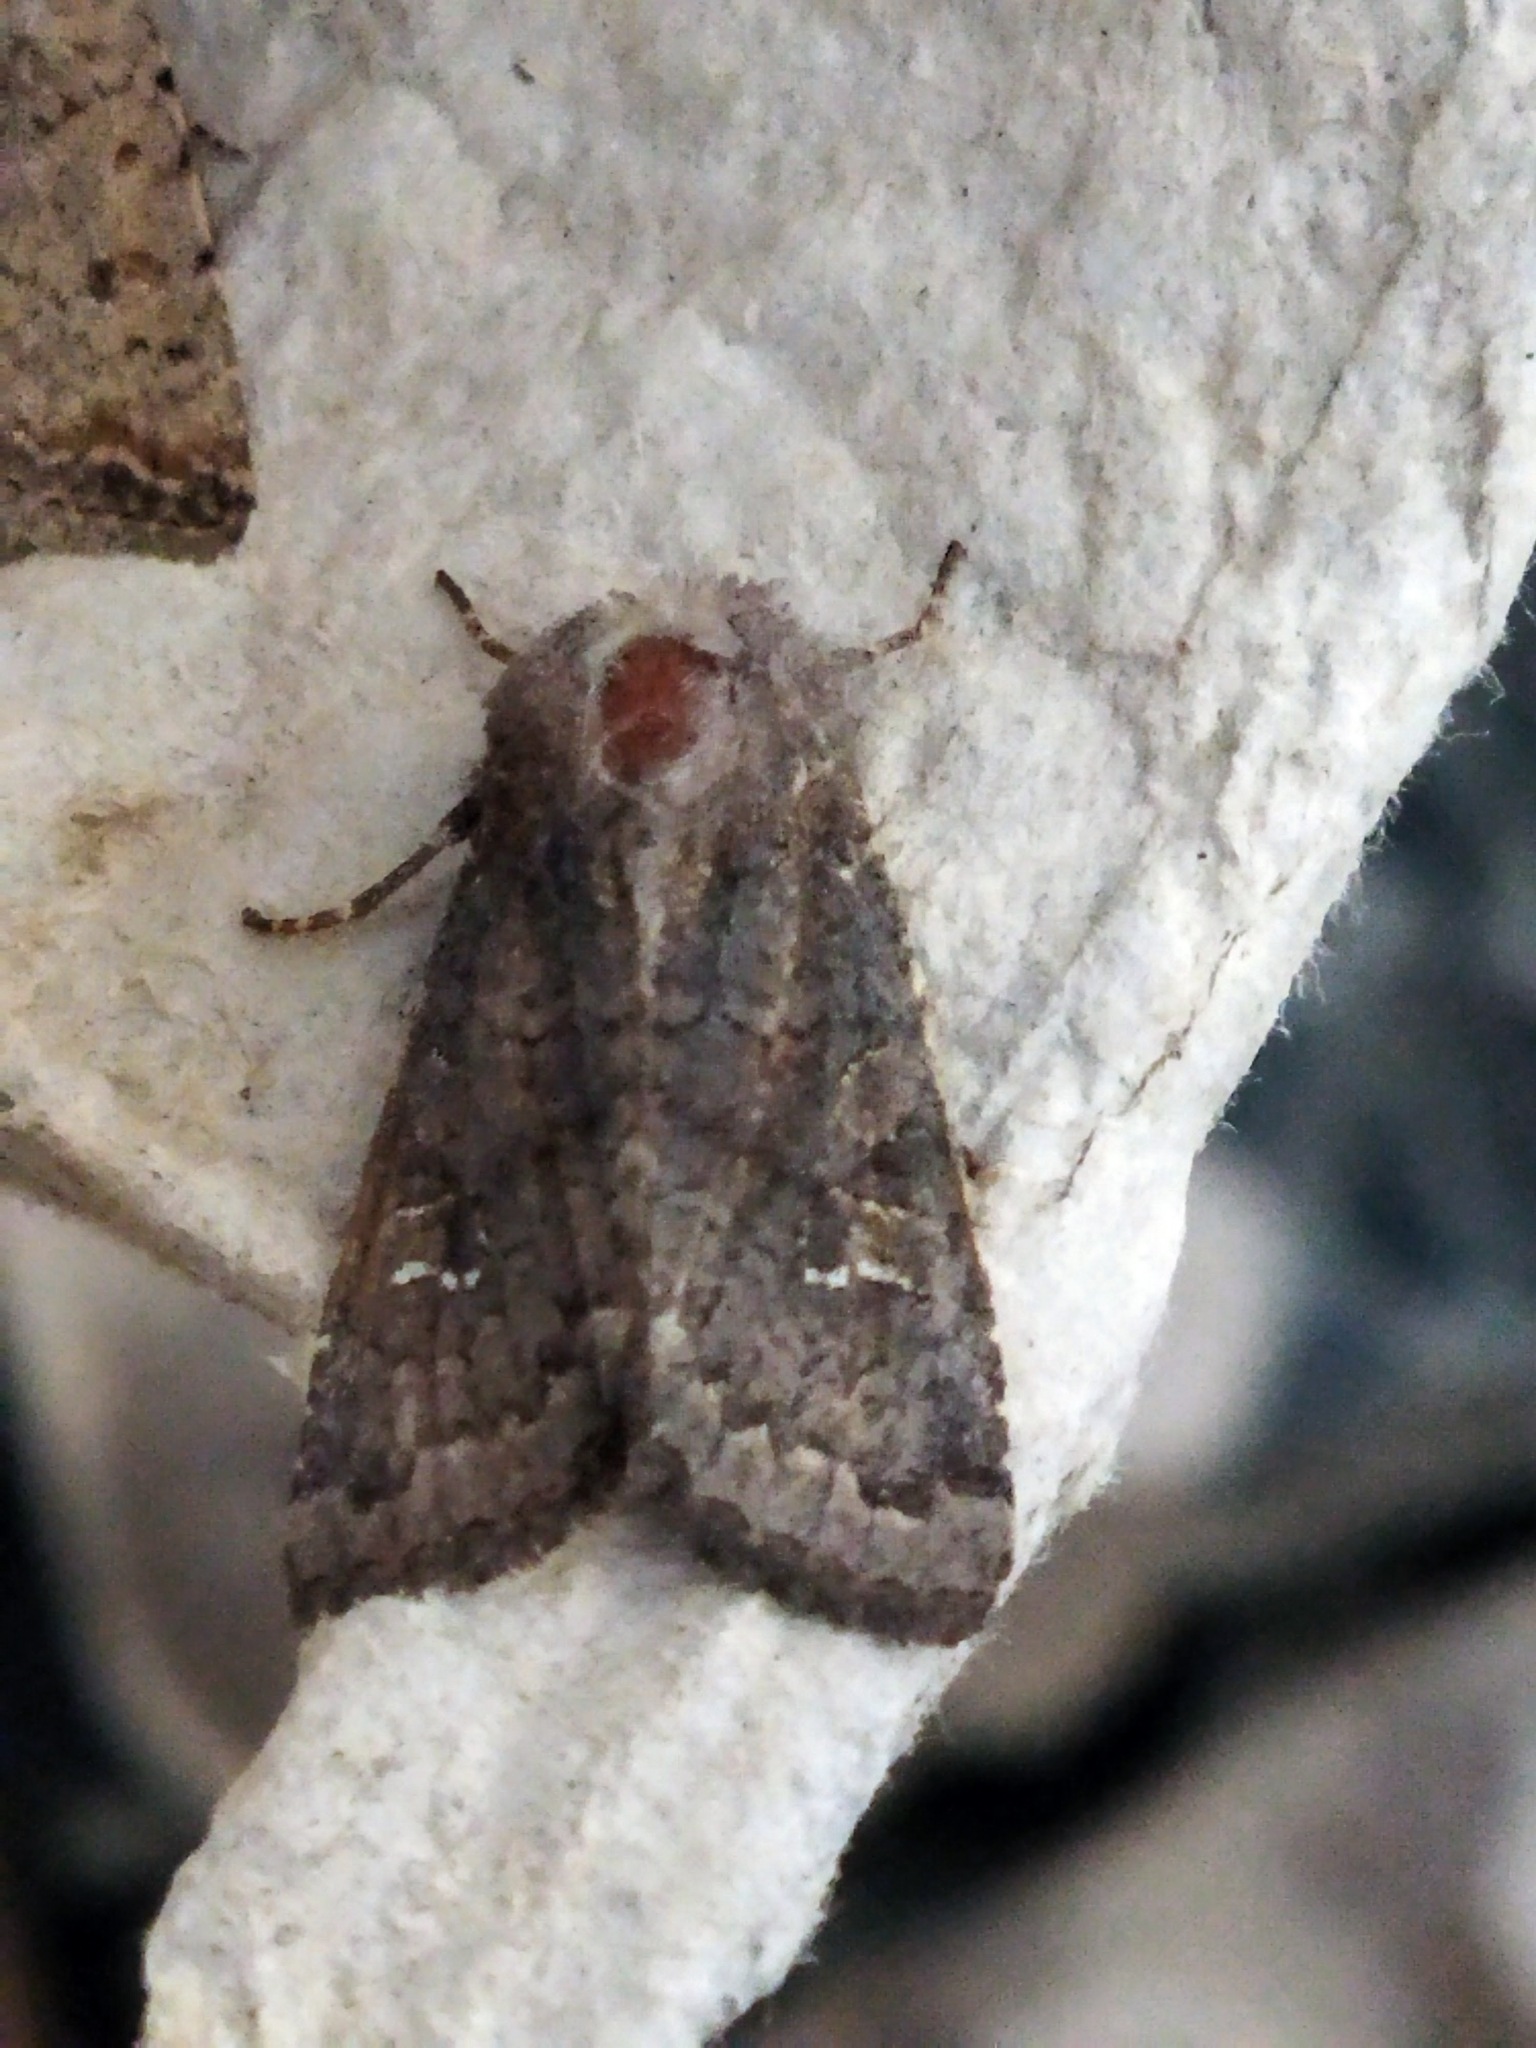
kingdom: Animalia
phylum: Arthropoda
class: Insecta
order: Lepidoptera
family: Noctuidae
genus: Aporophyla
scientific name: Aporophyla lutulenta
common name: Deep-brown dart
